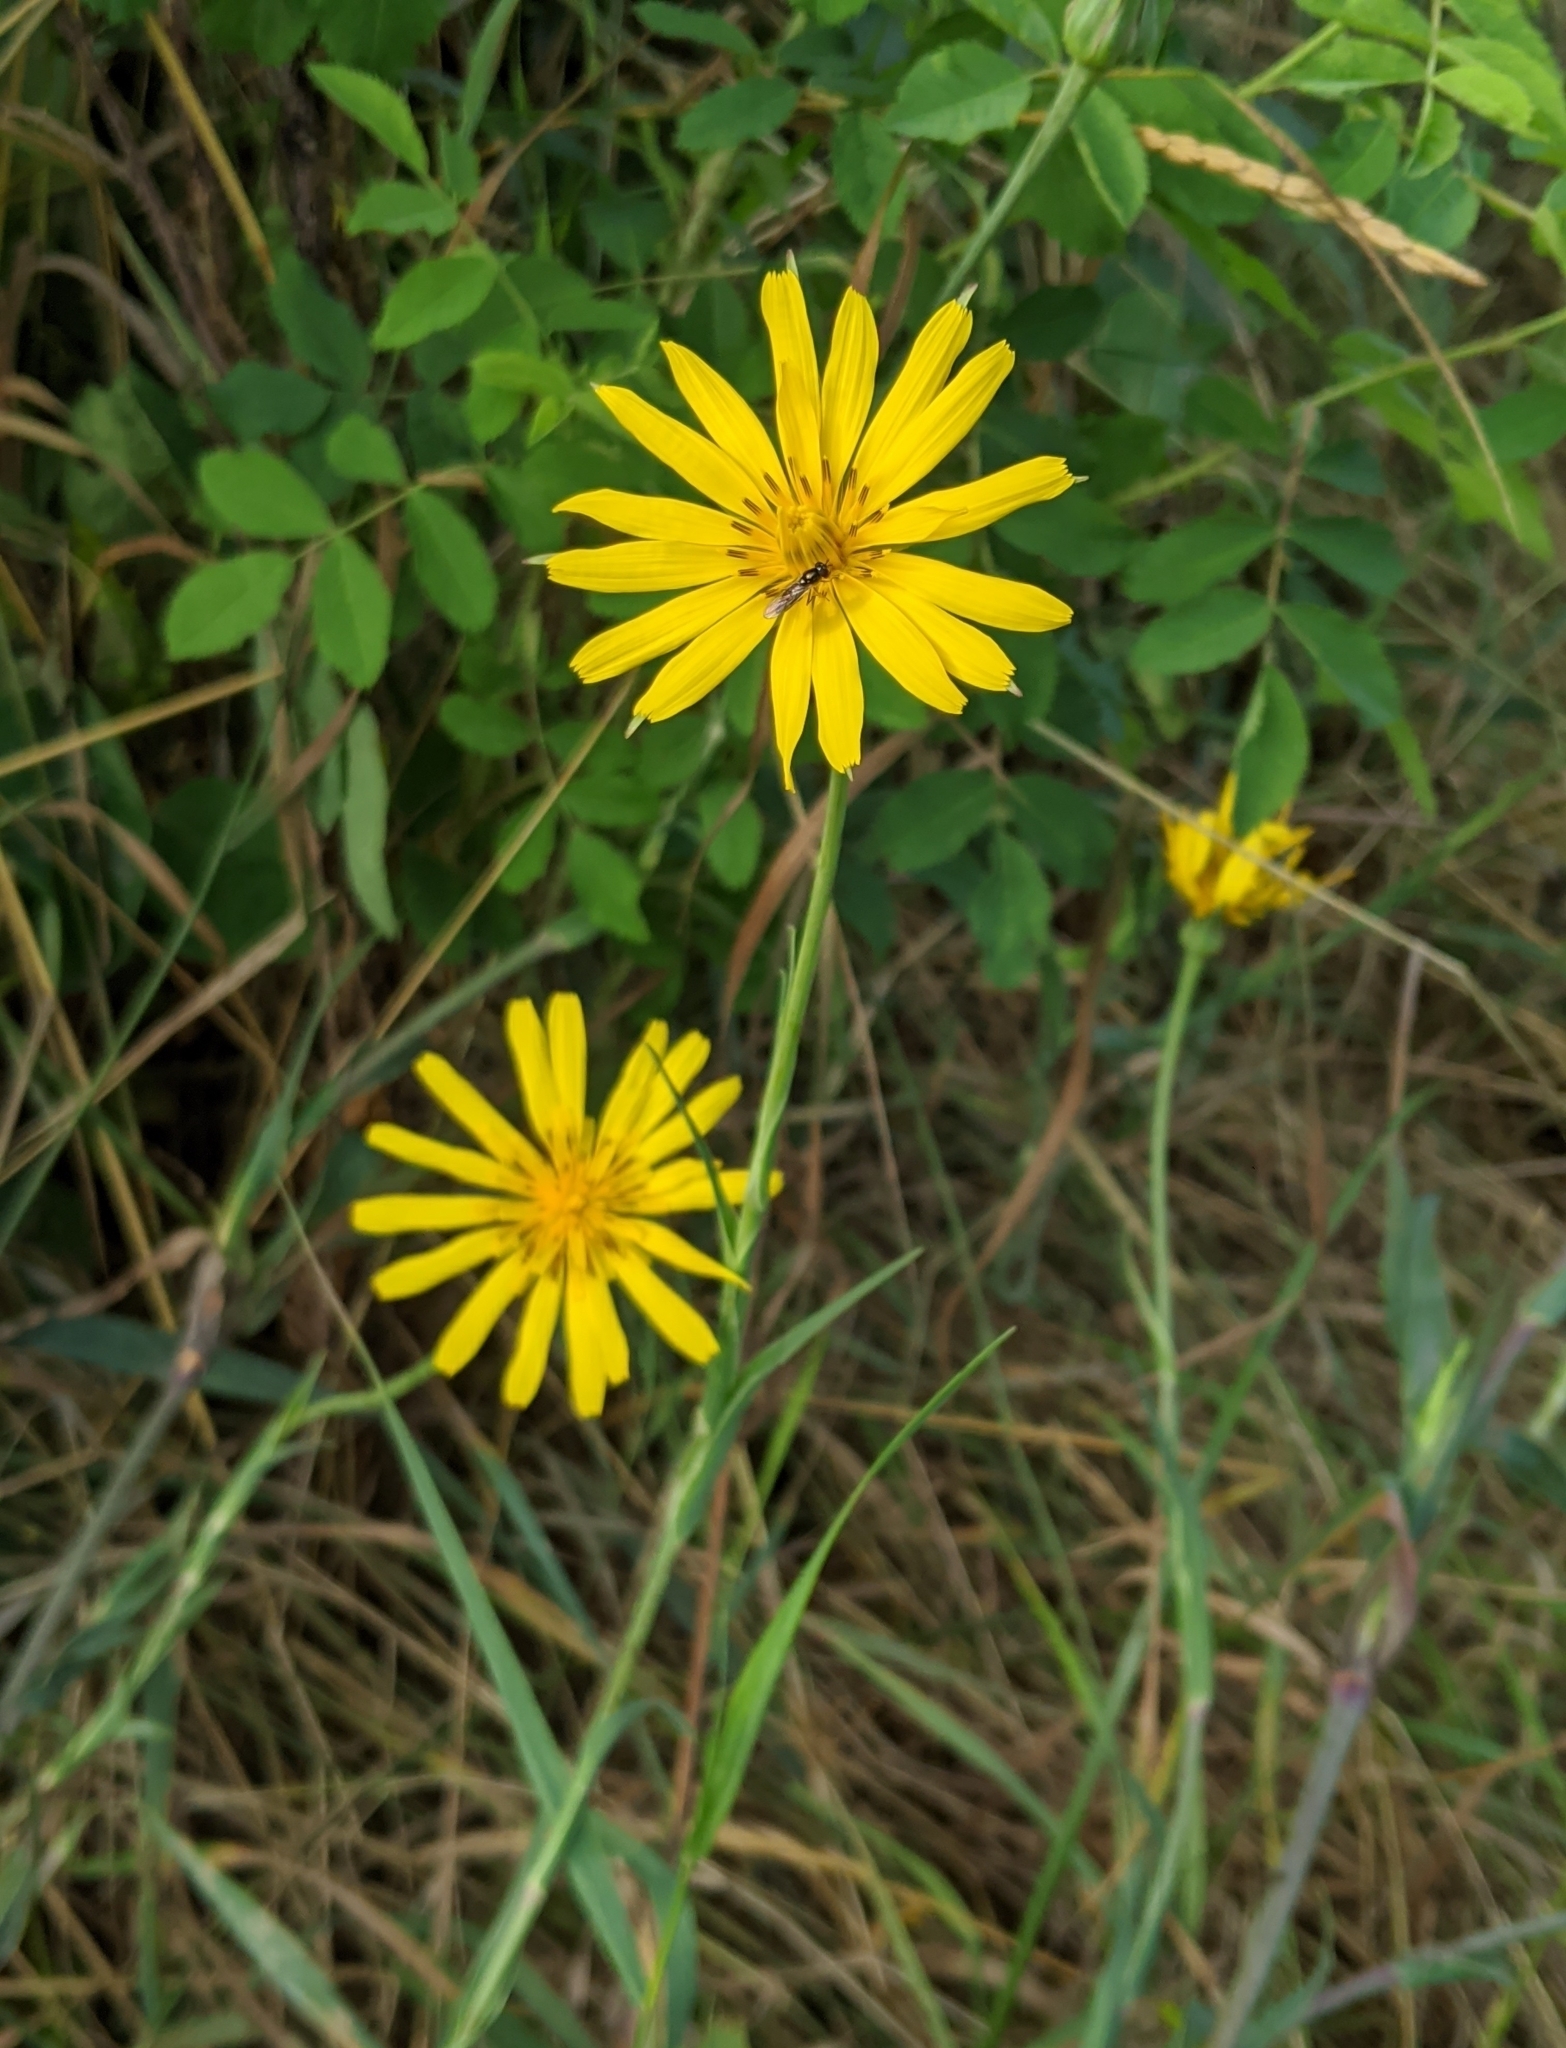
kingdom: Plantae
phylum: Tracheophyta
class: Magnoliopsida
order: Asterales
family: Asteraceae
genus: Tragopogon
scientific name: Tragopogon pratensis
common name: Goat's-beard
